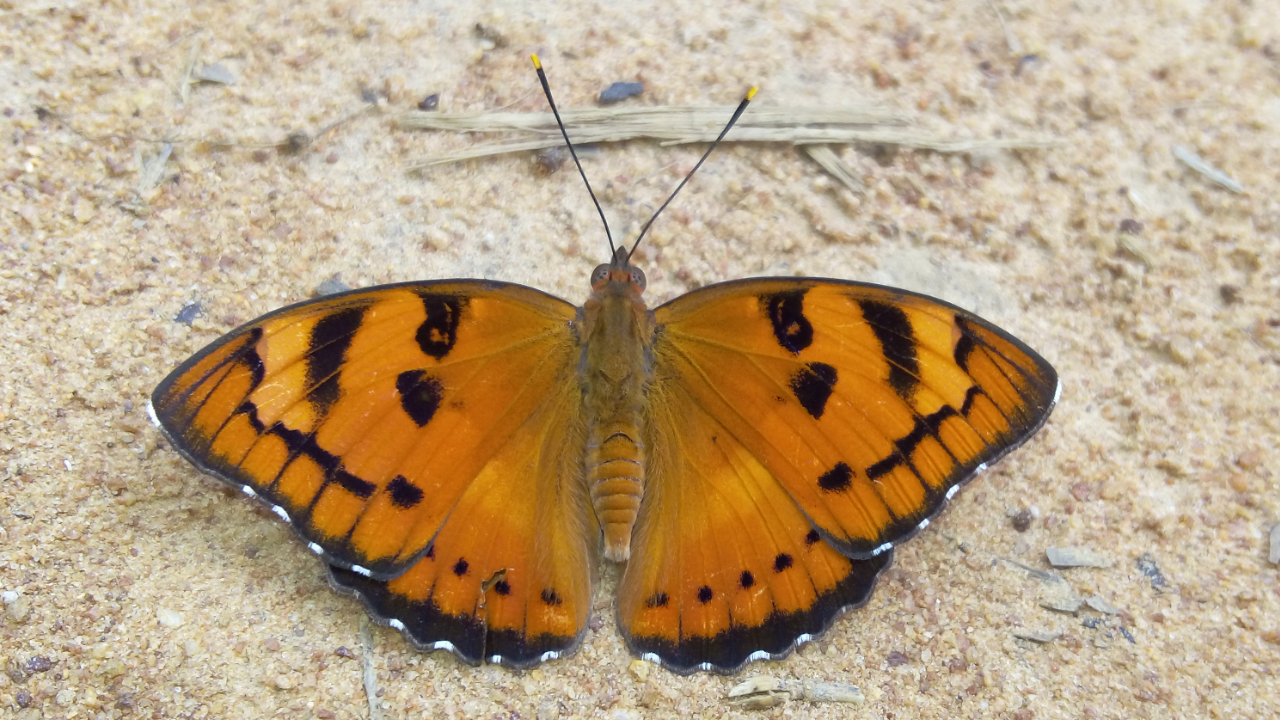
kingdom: Animalia
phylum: Arthropoda
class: Insecta
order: Lepidoptera
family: Nymphalidae
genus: Euthalia
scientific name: Euthalia nais
